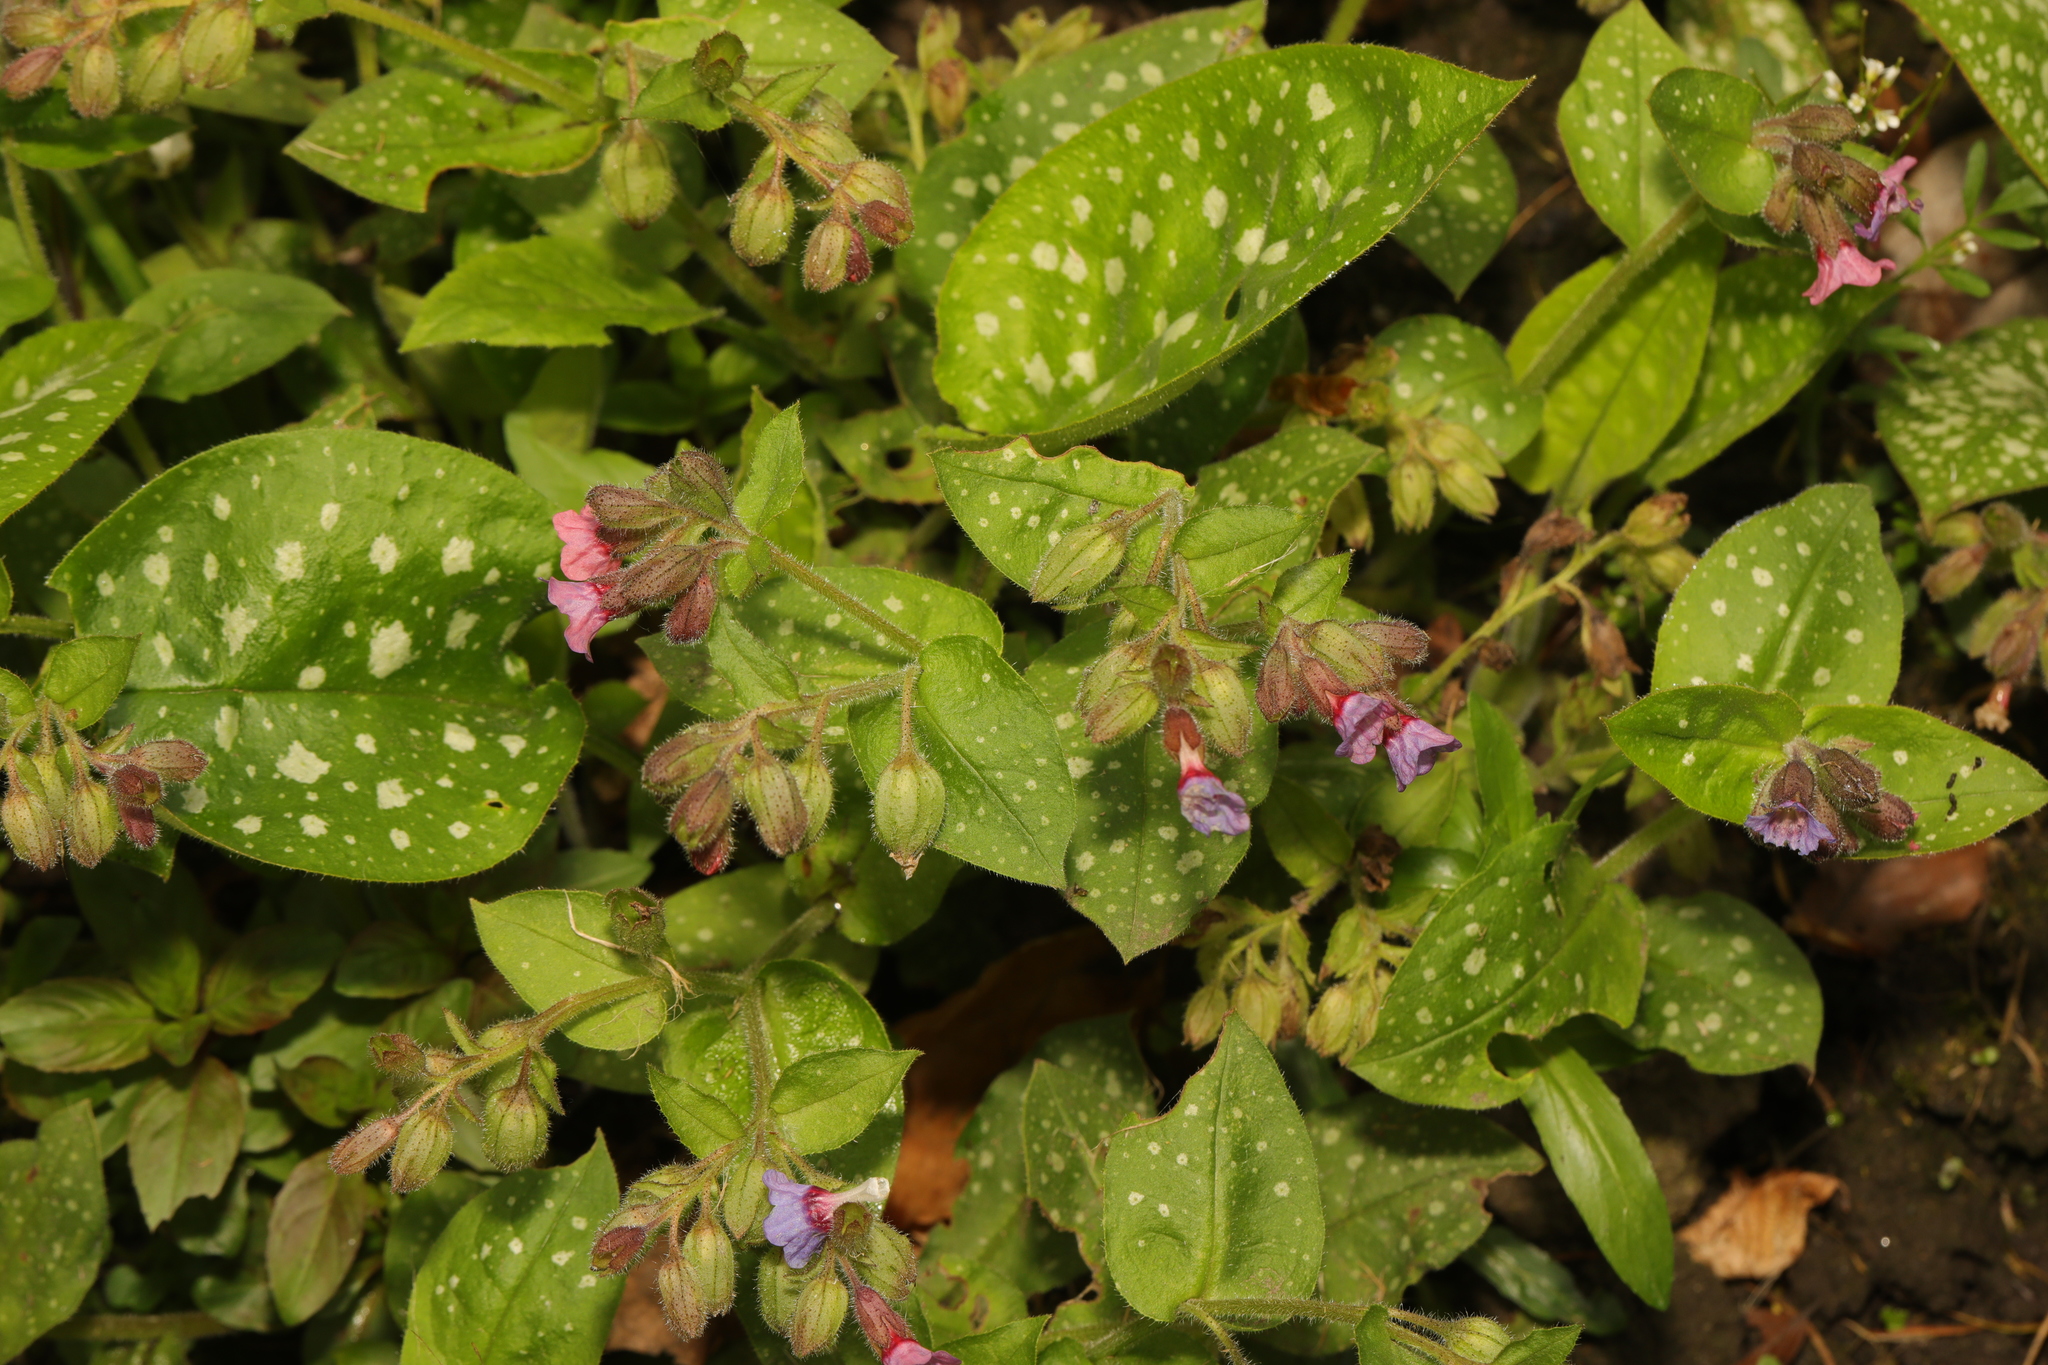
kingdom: Plantae
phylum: Tracheophyta
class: Magnoliopsida
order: Boraginales
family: Boraginaceae
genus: Pulmonaria
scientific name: Pulmonaria officinalis
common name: Lungwort
